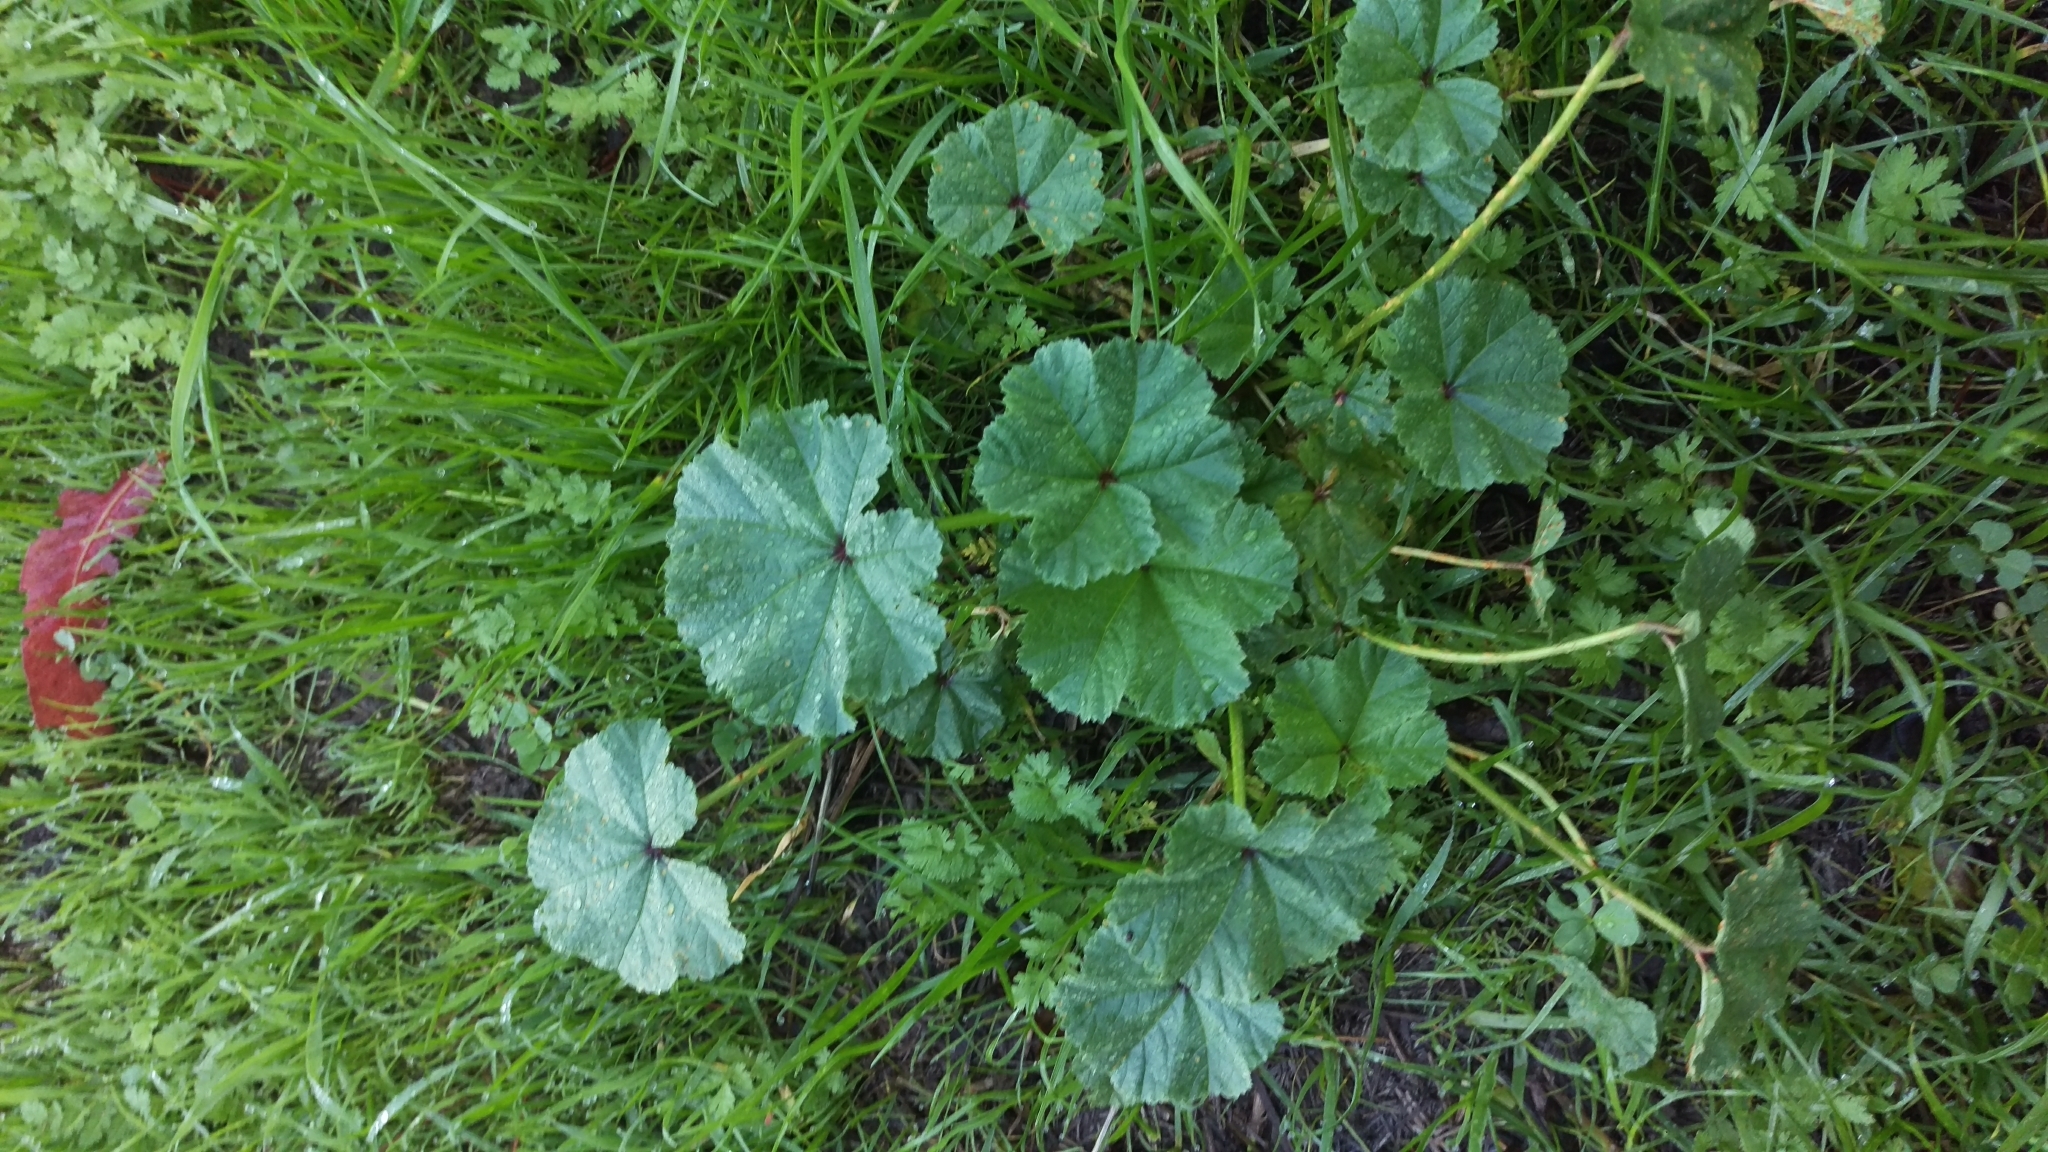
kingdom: Plantae
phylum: Tracheophyta
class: Magnoliopsida
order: Malvales
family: Malvaceae
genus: Malva
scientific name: Malva
